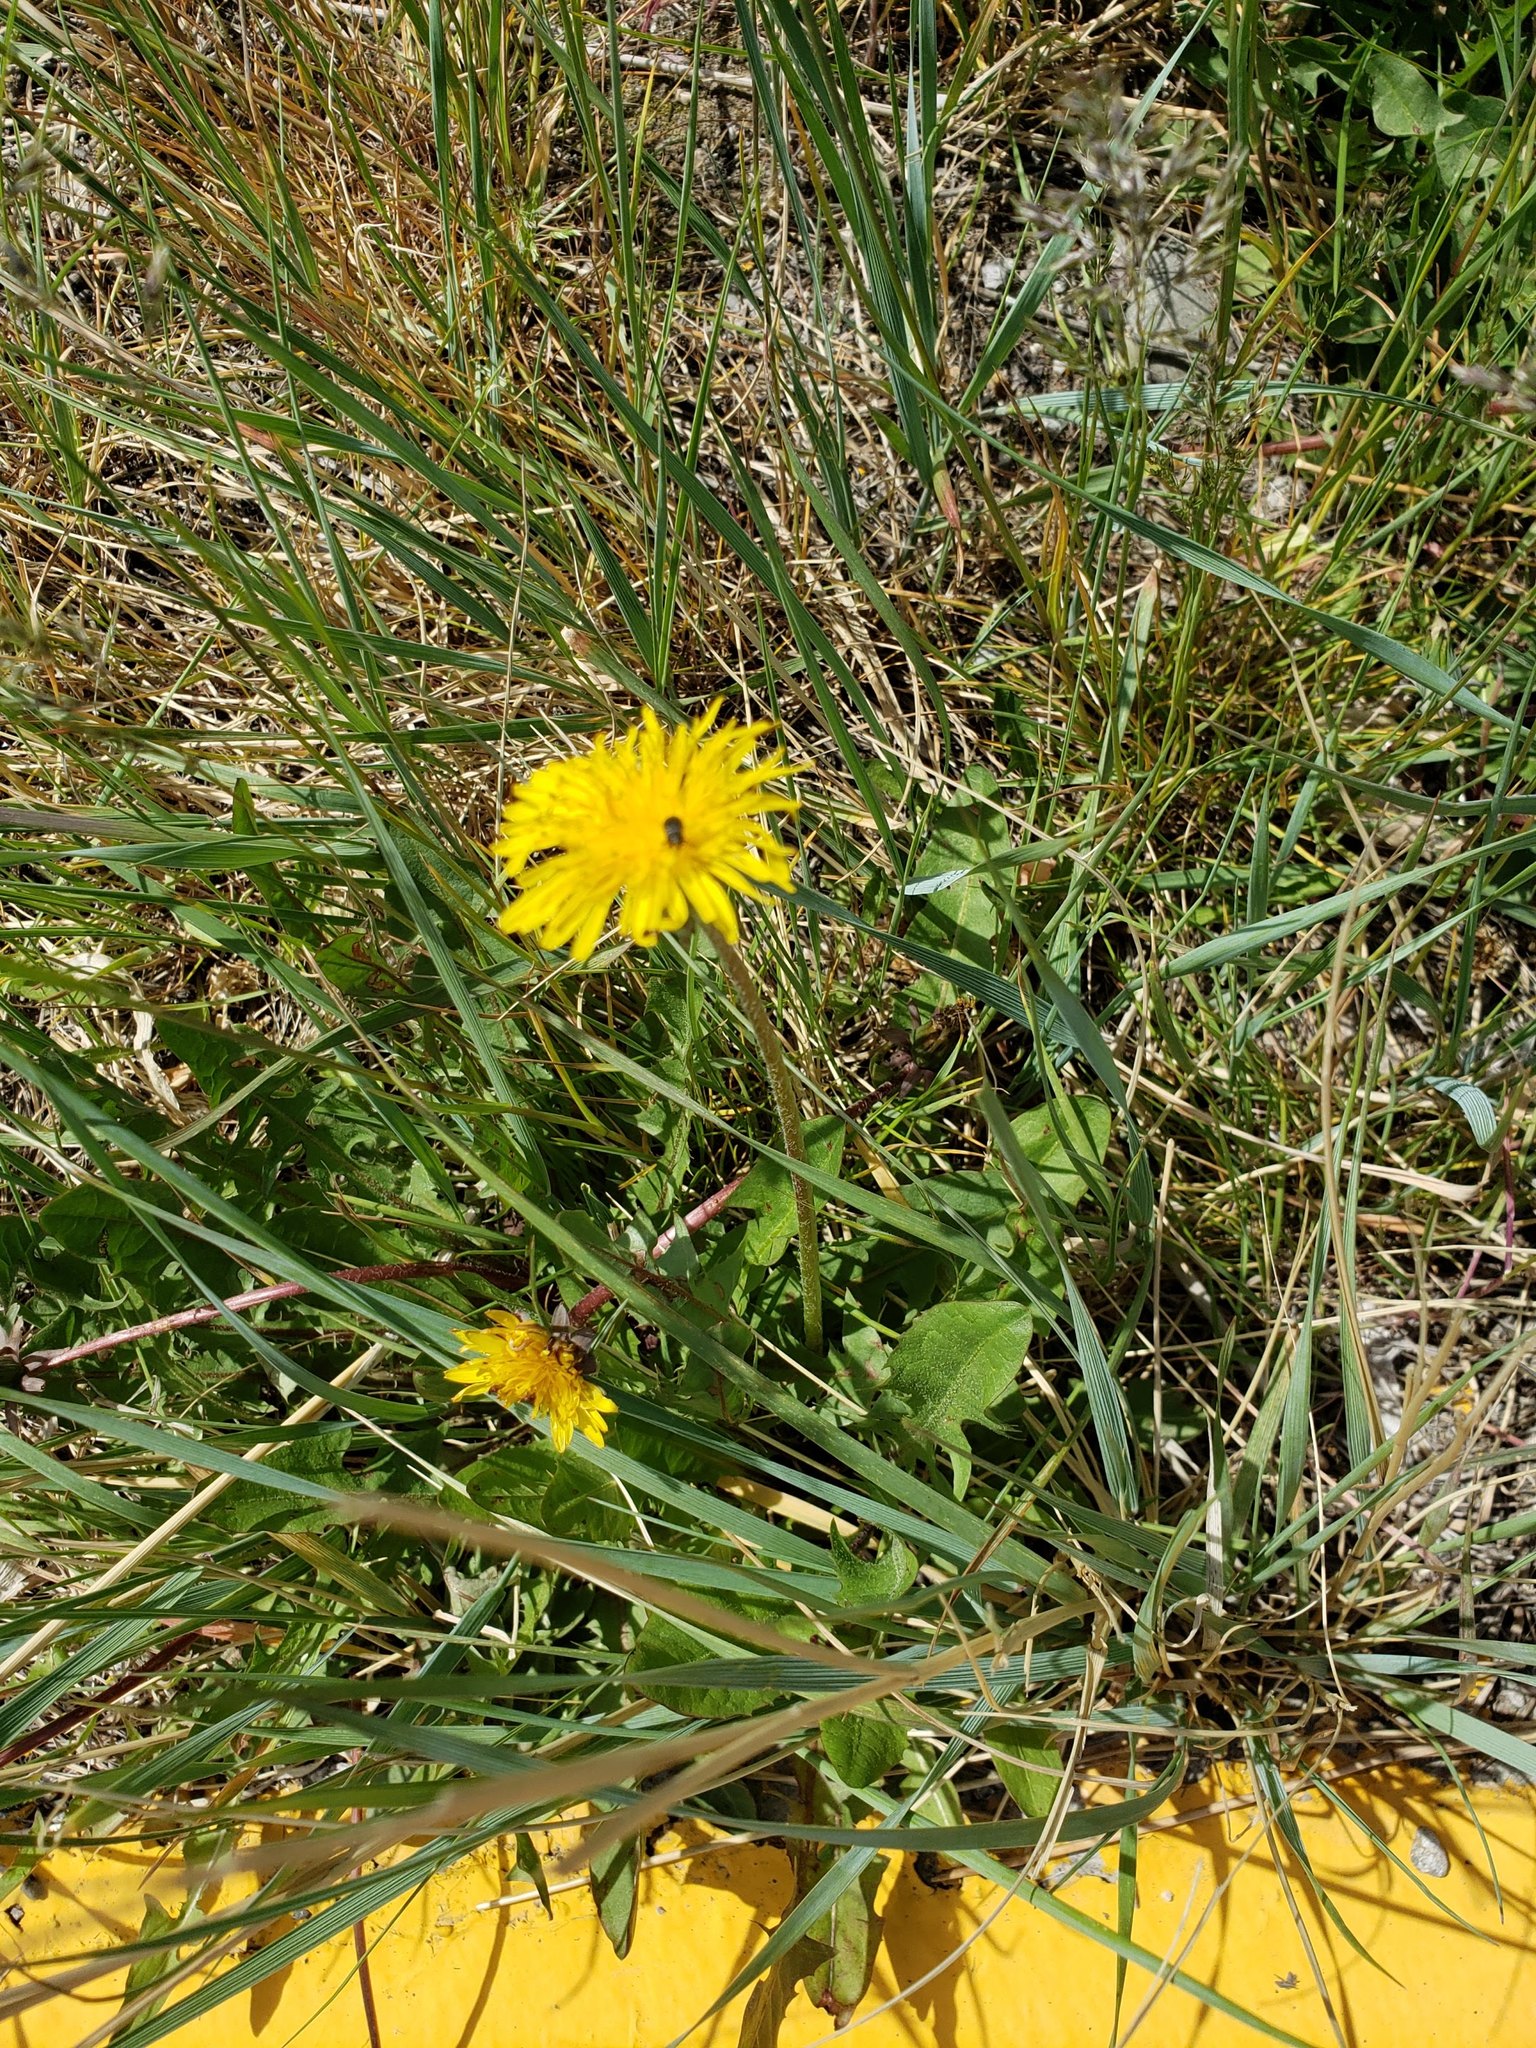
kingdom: Plantae
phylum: Tracheophyta
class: Magnoliopsida
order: Asterales
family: Asteraceae
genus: Taraxacum
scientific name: Taraxacum officinale
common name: Common dandelion
